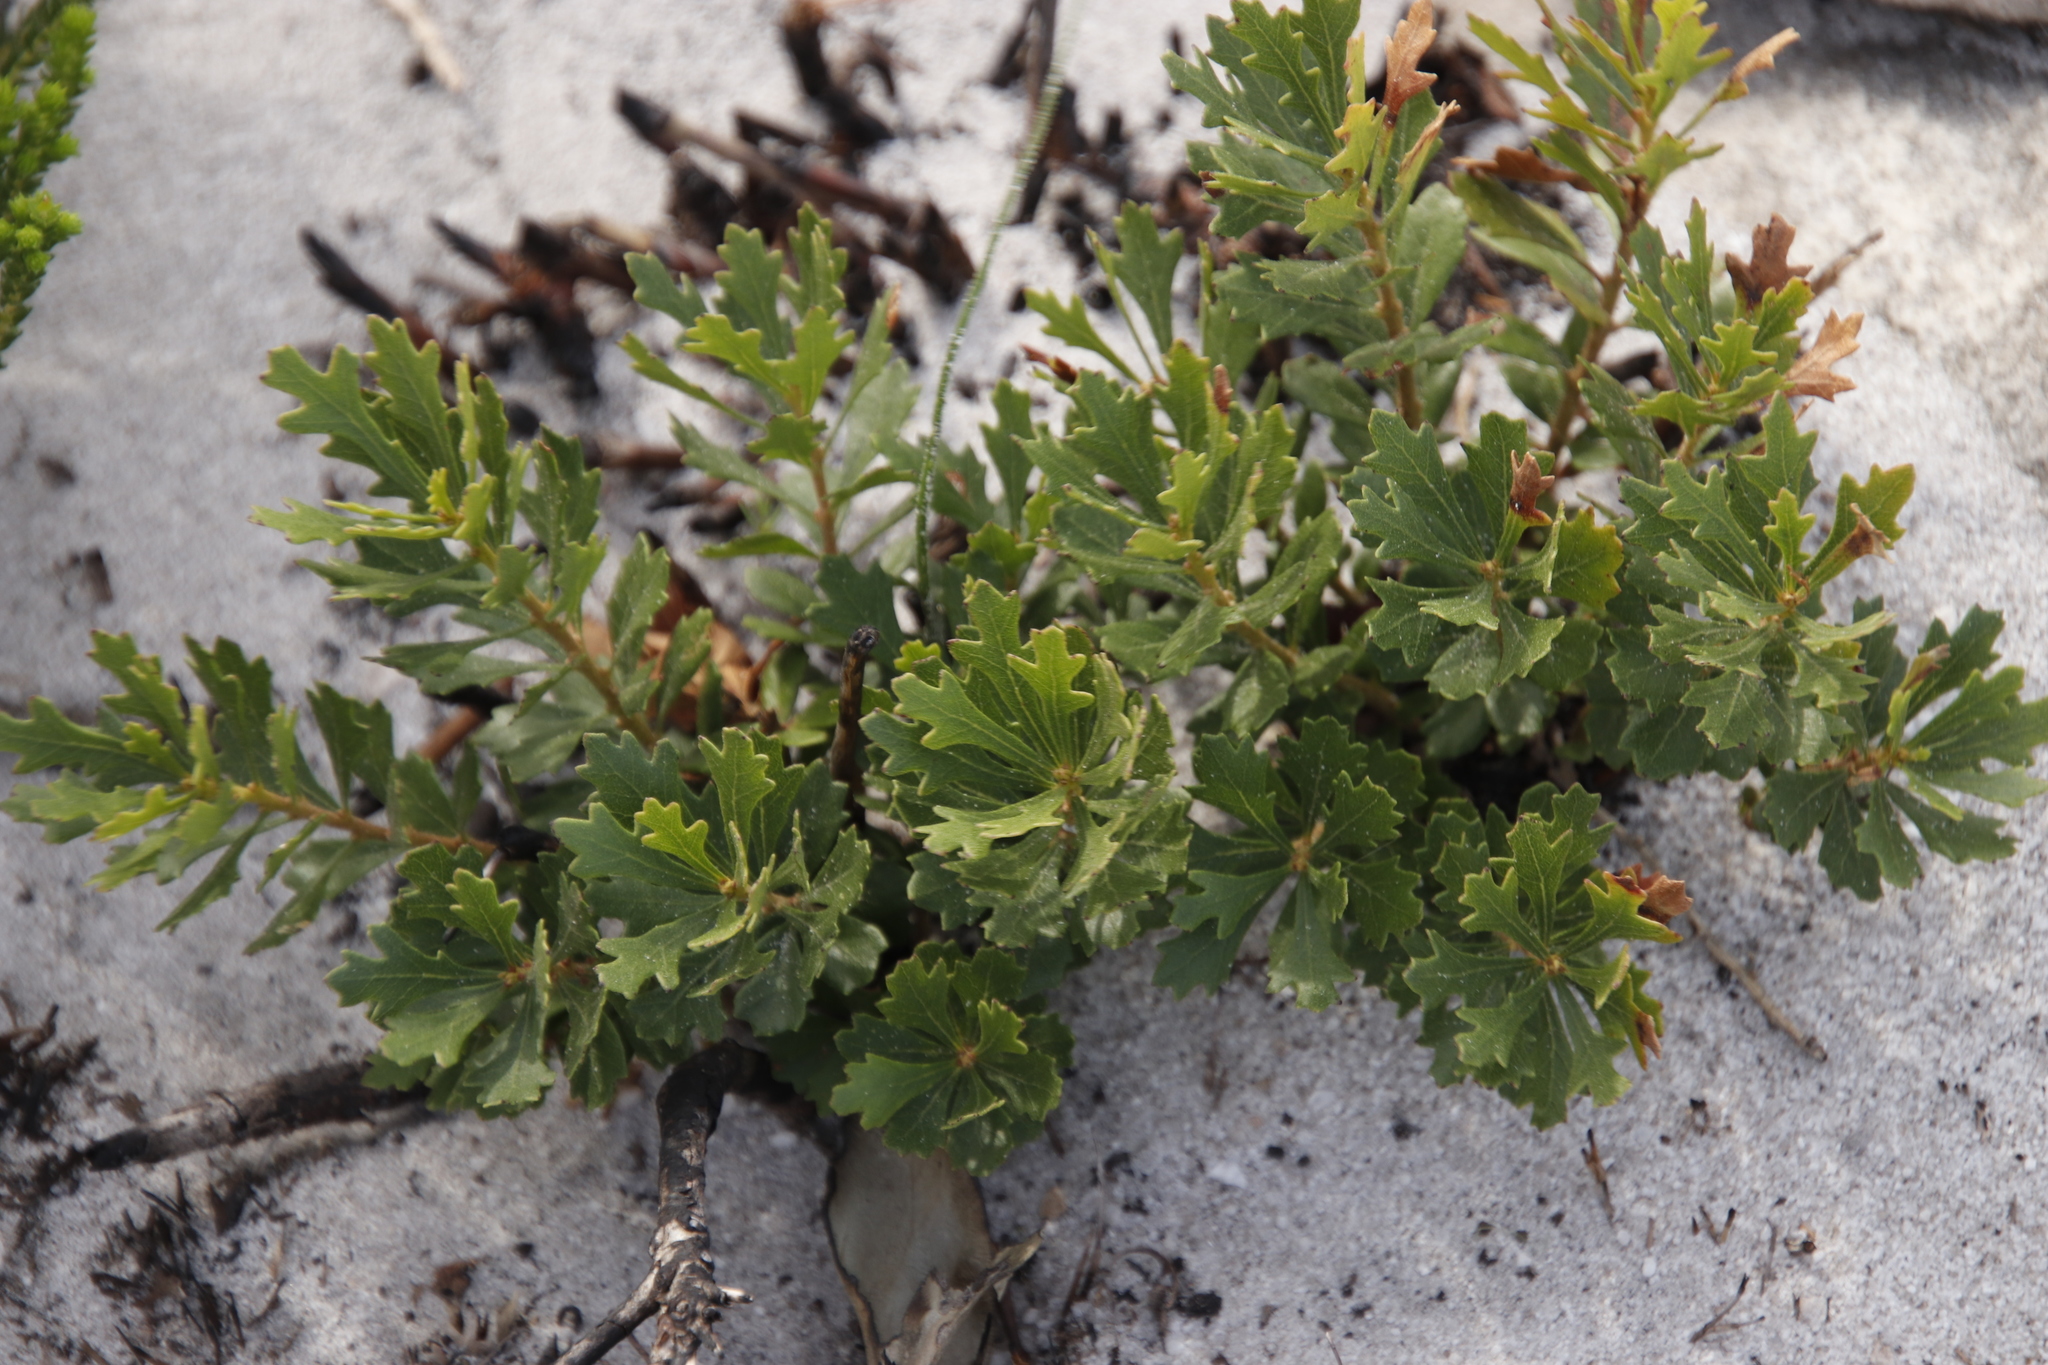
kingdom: Plantae
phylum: Tracheophyta
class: Magnoliopsida
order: Fagales
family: Myricaceae
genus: Morella
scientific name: Morella quercifolia
